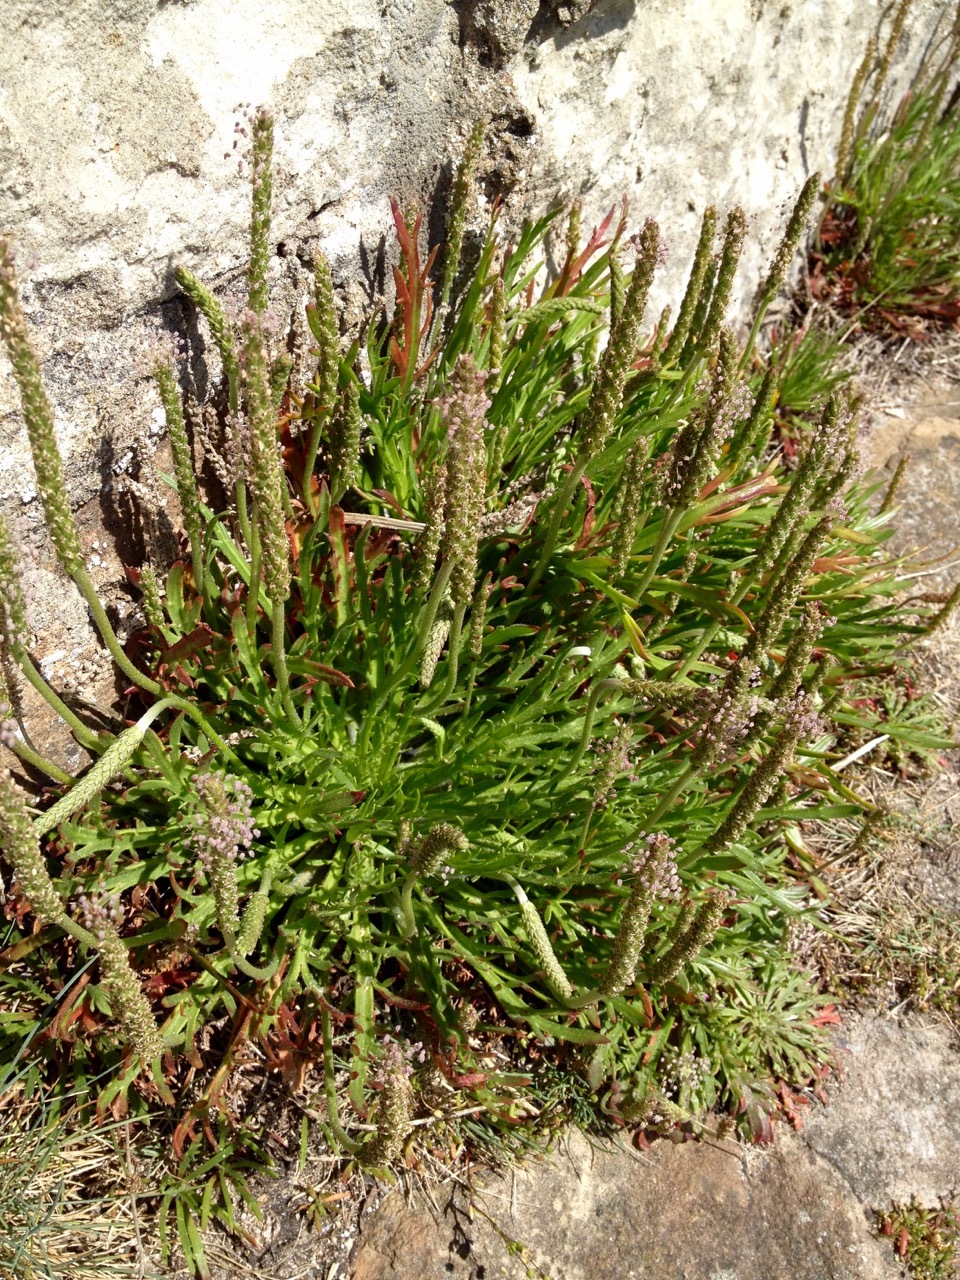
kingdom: Plantae
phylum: Tracheophyta
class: Magnoliopsida
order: Lamiales
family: Plantaginaceae
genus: Plantago
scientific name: Plantago coronopus
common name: Buck's-horn plantain
